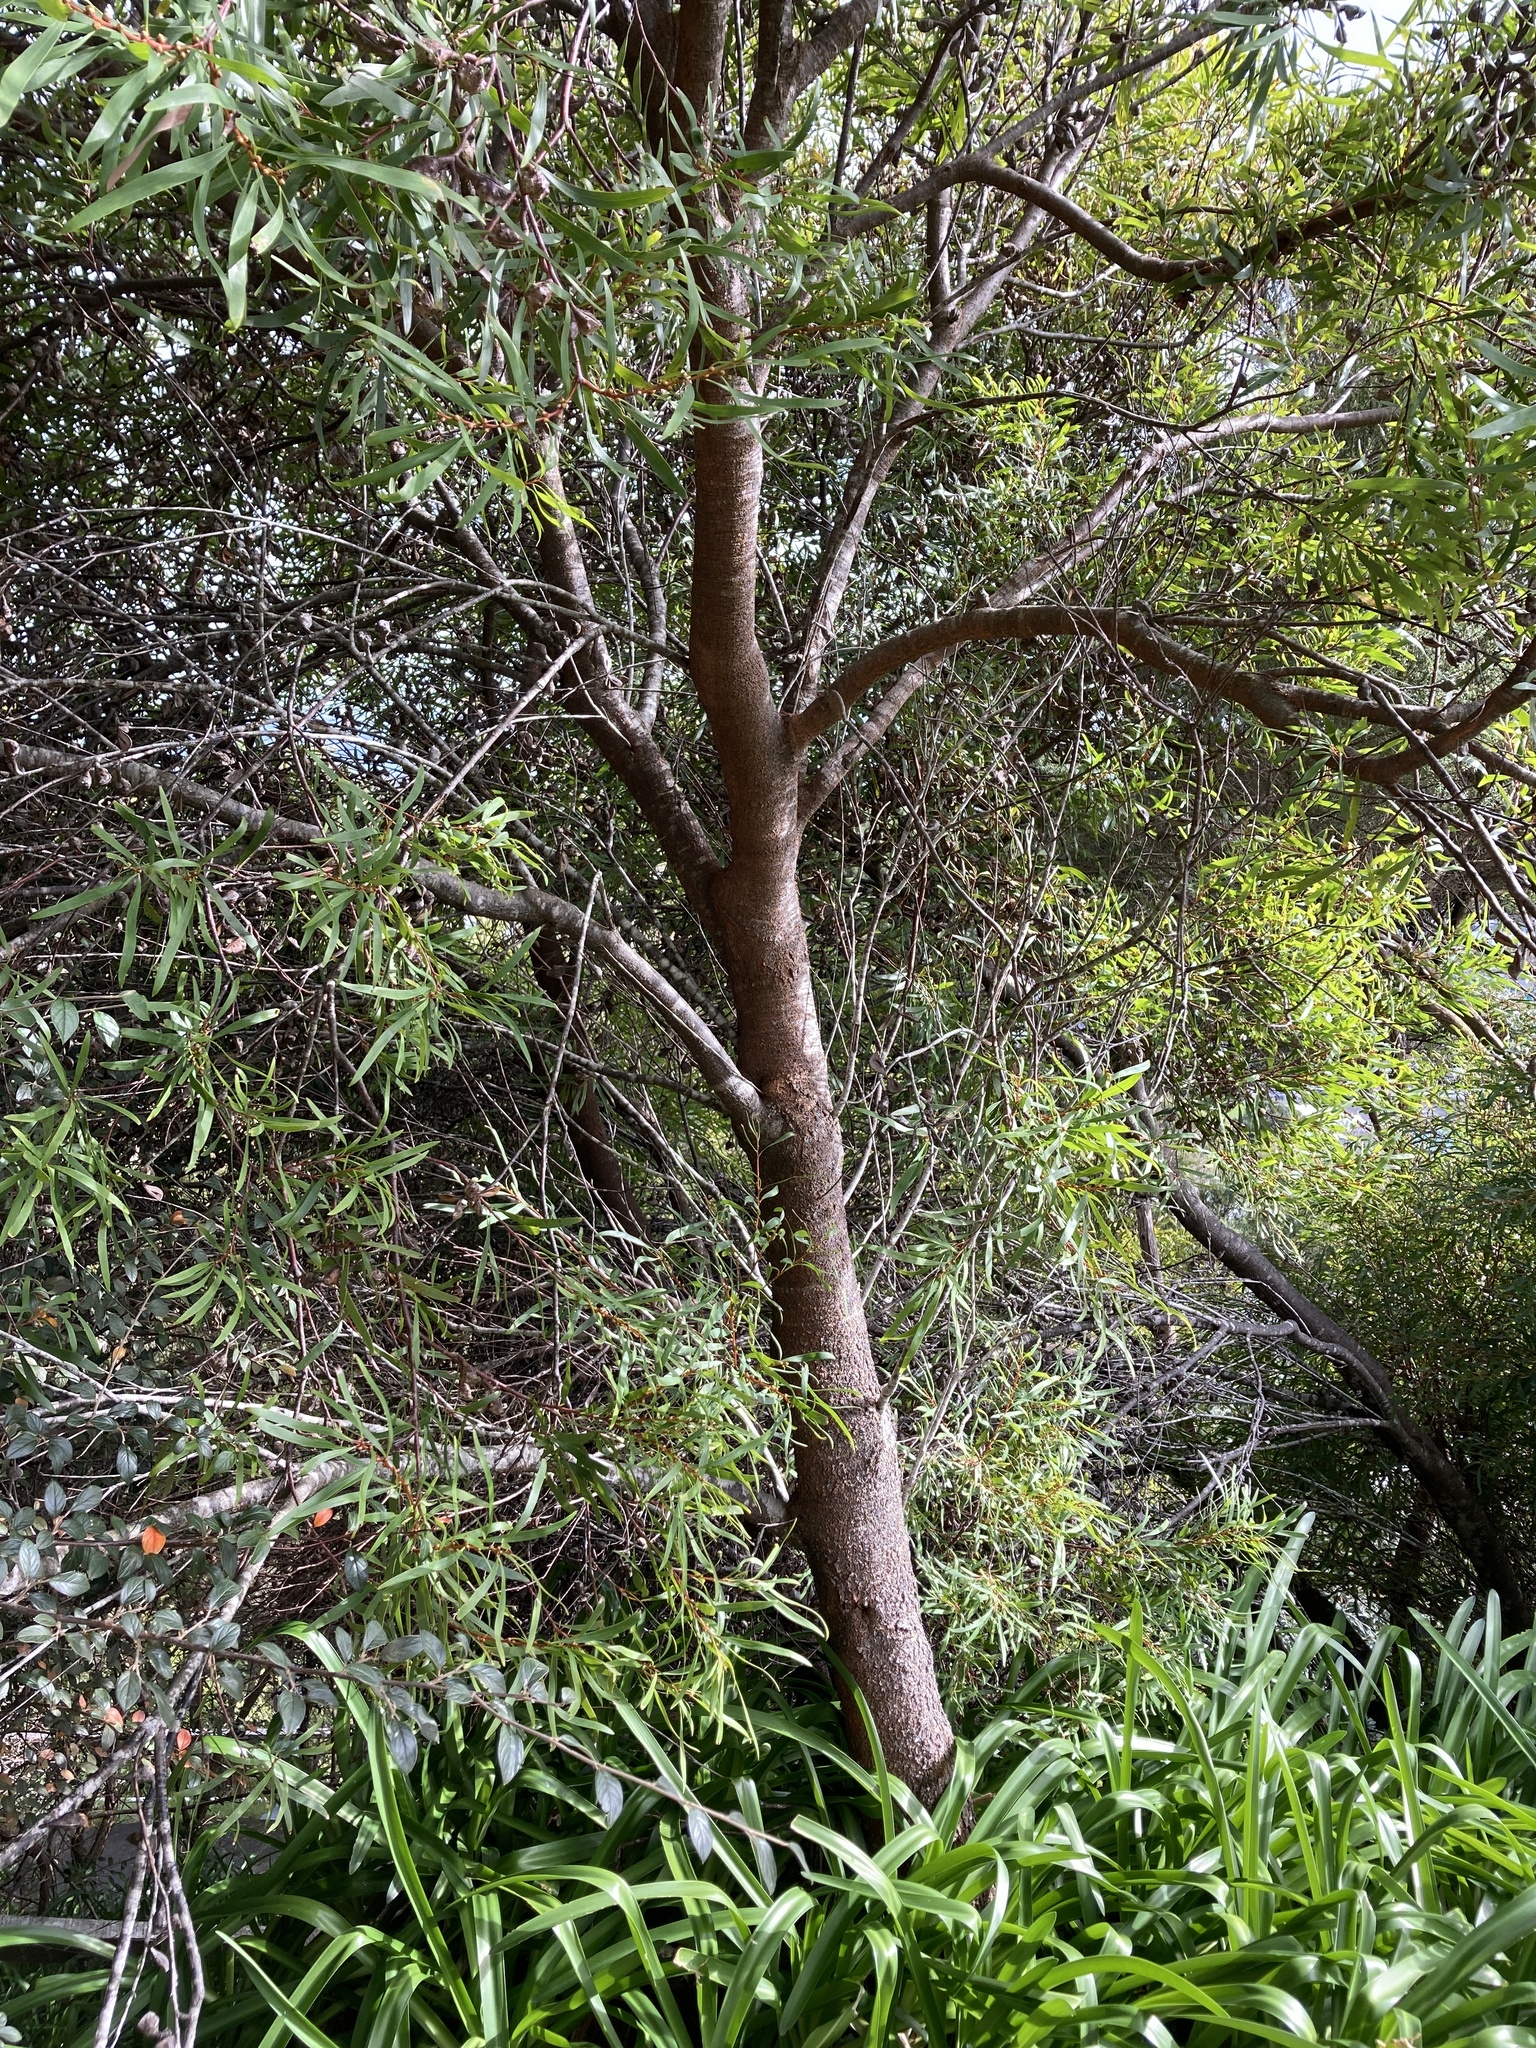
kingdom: Plantae
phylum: Tracheophyta
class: Magnoliopsida
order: Proteales
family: Proteaceae
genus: Hakea
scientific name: Hakea salicifolia
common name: Willow hakea
